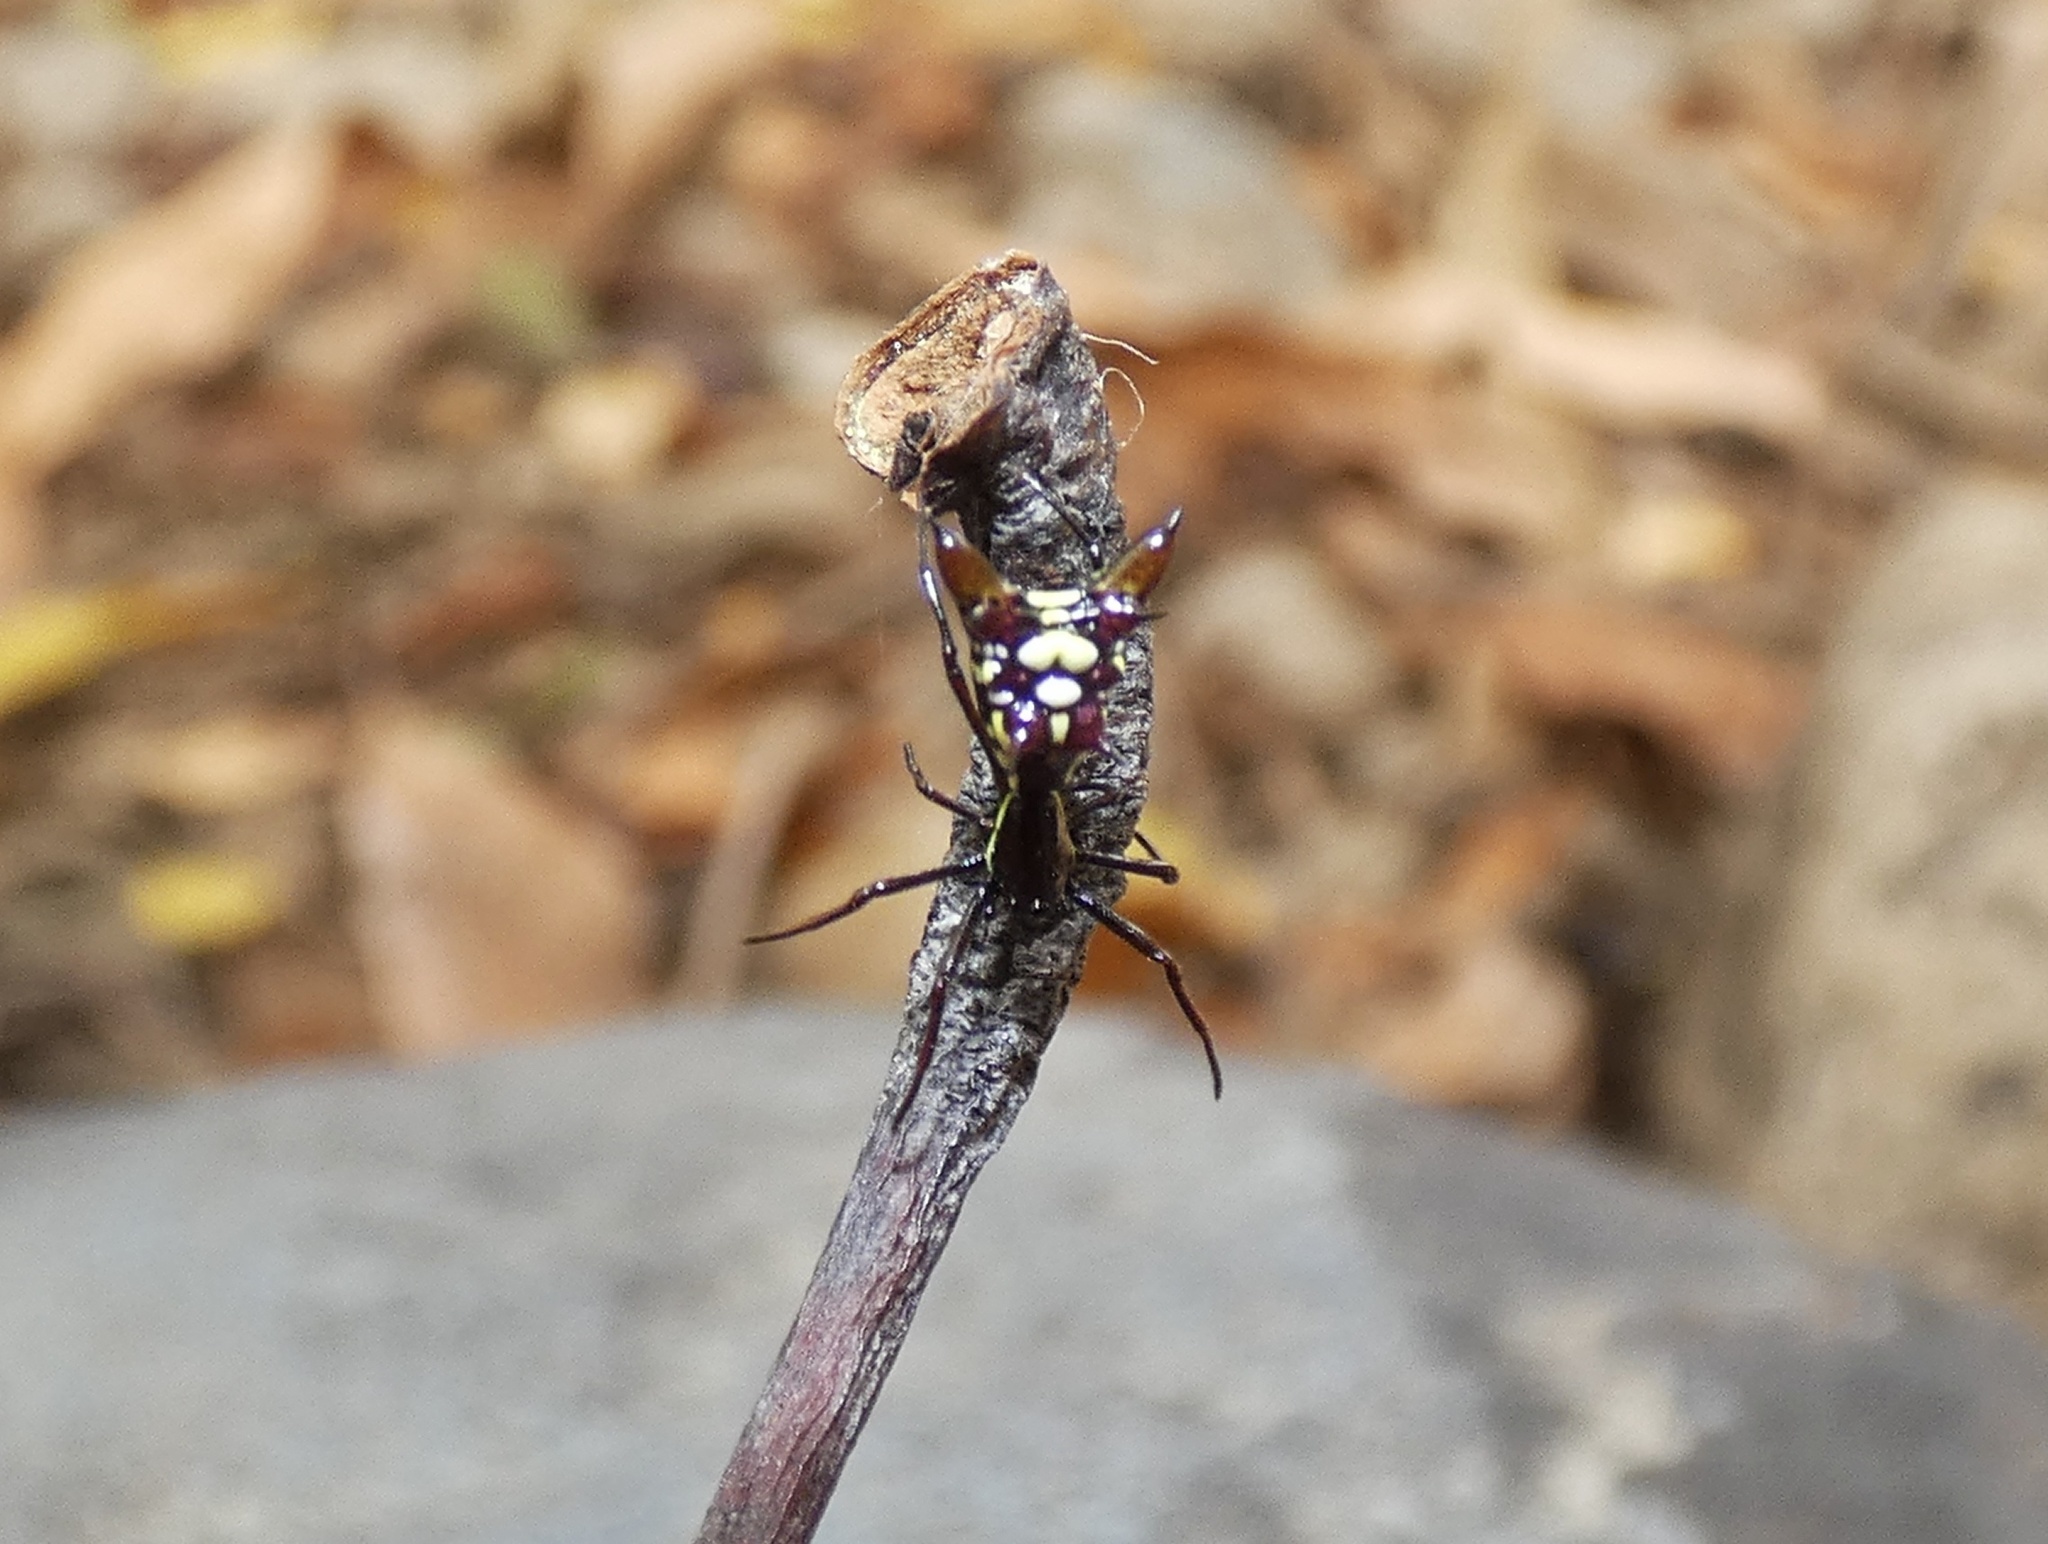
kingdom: Animalia
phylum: Arthropoda
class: Arachnida
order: Araneae
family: Araneidae
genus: Micrathena
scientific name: Micrathena sexspinosa
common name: Orb weavers
